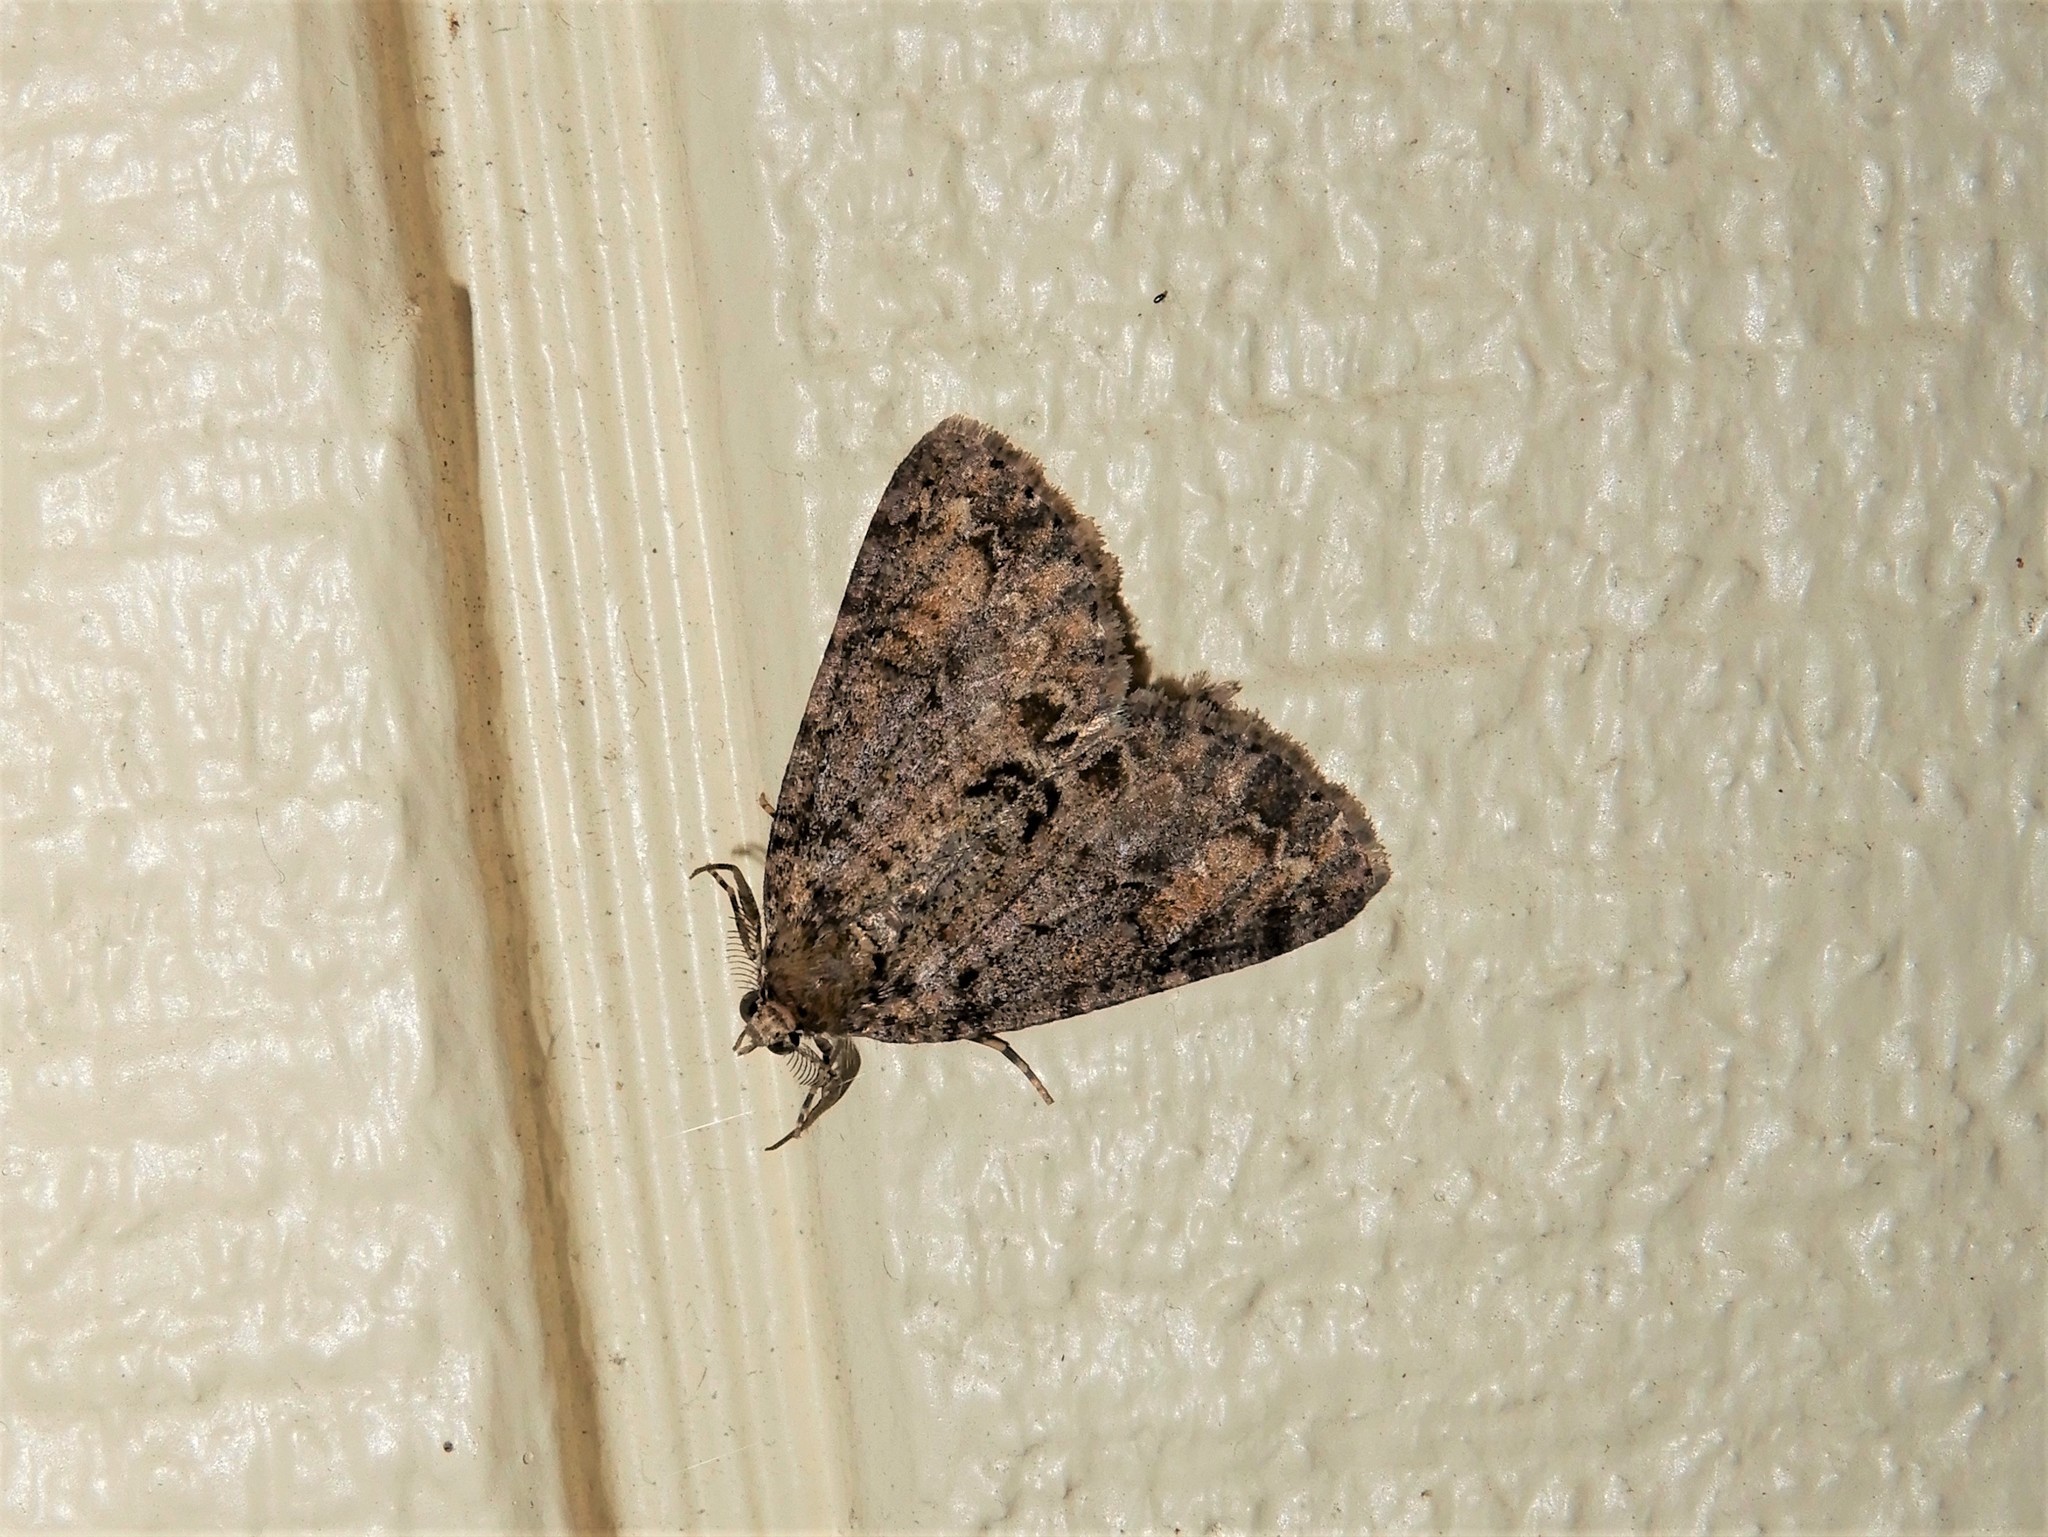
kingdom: Animalia
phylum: Arthropoda
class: Insecta
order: Lepidoptera
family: Geometridae
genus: Pseudocoremia
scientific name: Pseudocoremia suavis
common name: Common forest looper
